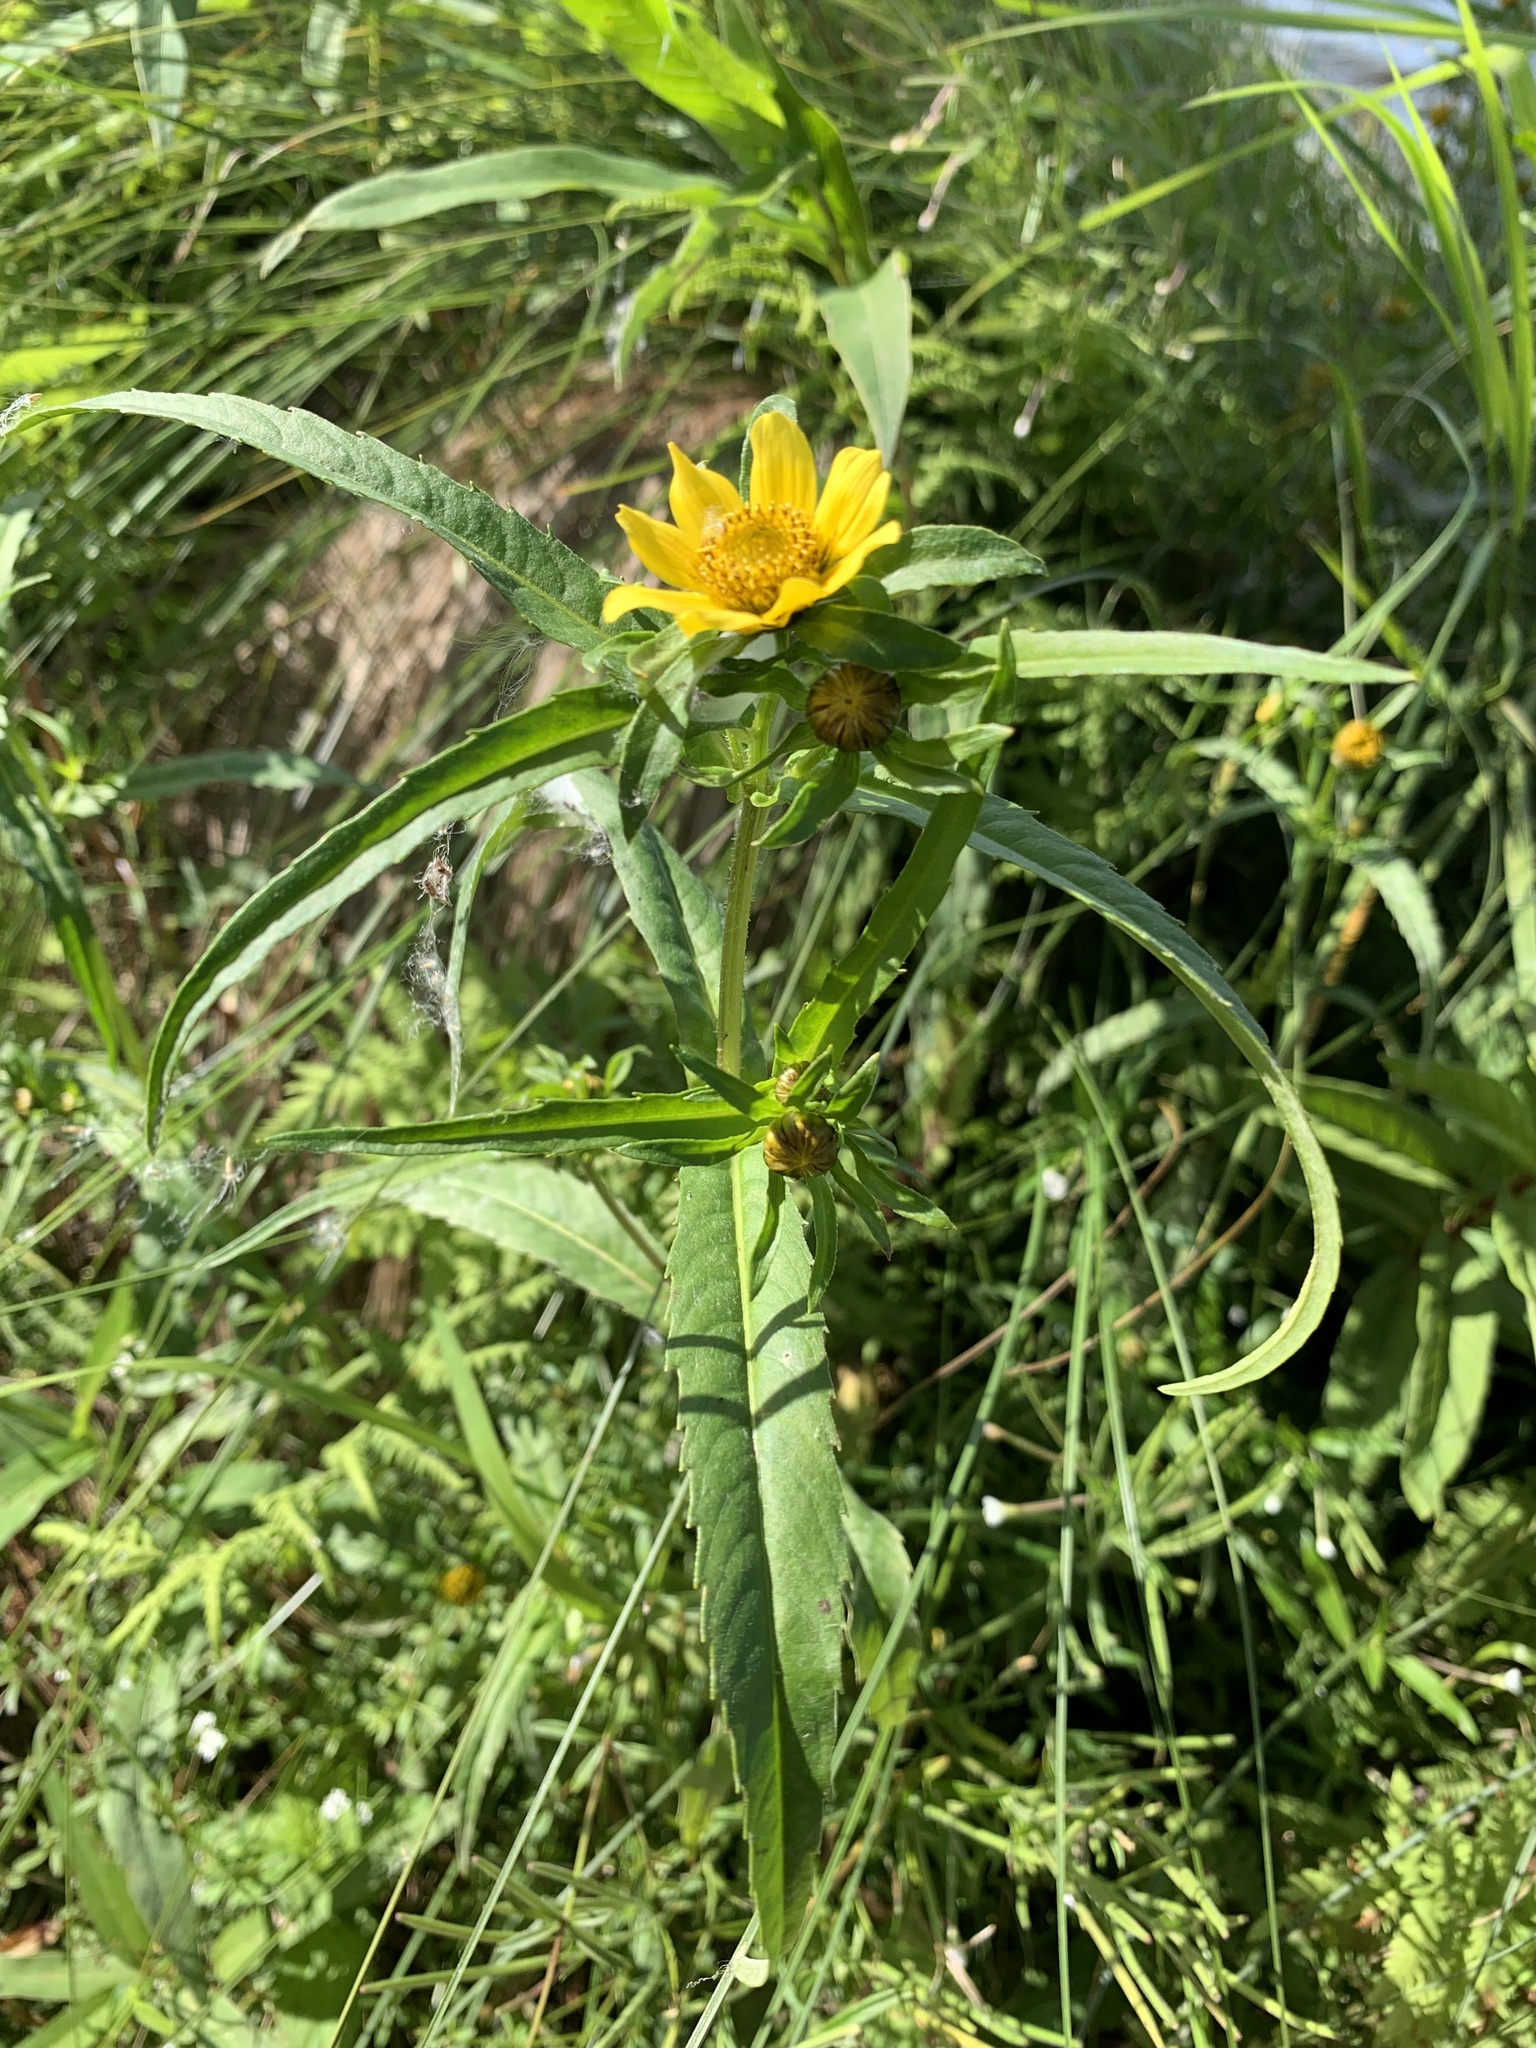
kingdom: Plantae
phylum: Tracheophyta
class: Magnoliopsida
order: Asterales
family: Asteraceae
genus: Bidens
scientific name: Bidens cernua
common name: Nodding bur-marigold
